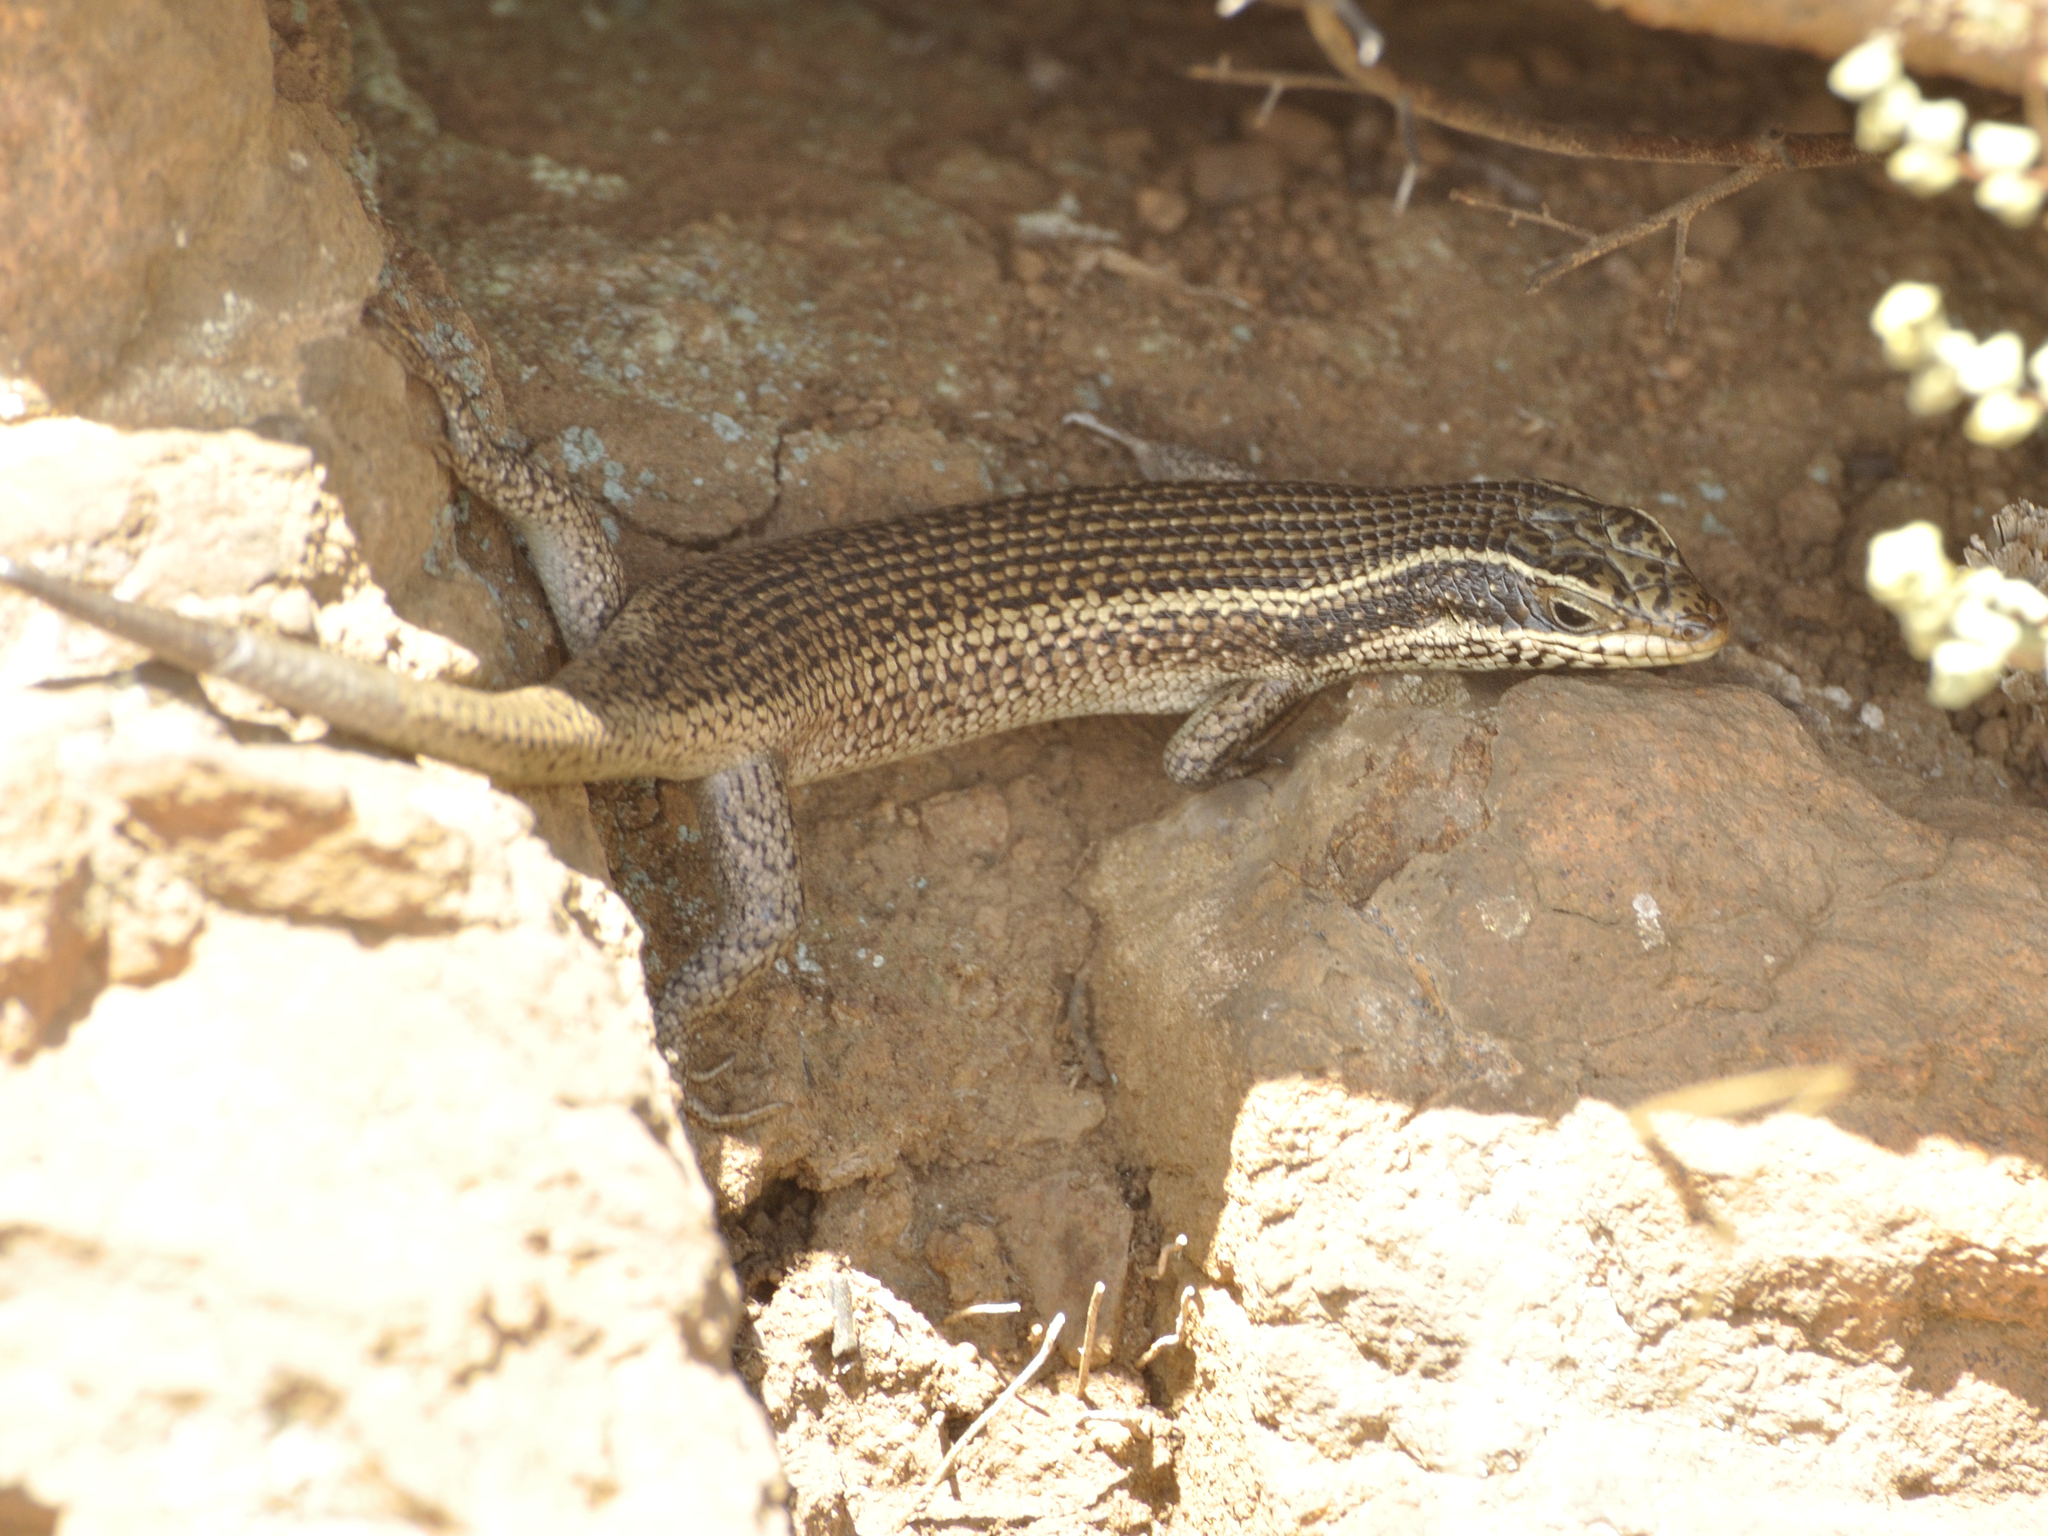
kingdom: Animalia
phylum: Chordata
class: Squamata
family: Scincidae
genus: Trachylepis
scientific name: Trachylepis punctatissima
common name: Montane speckled skink
